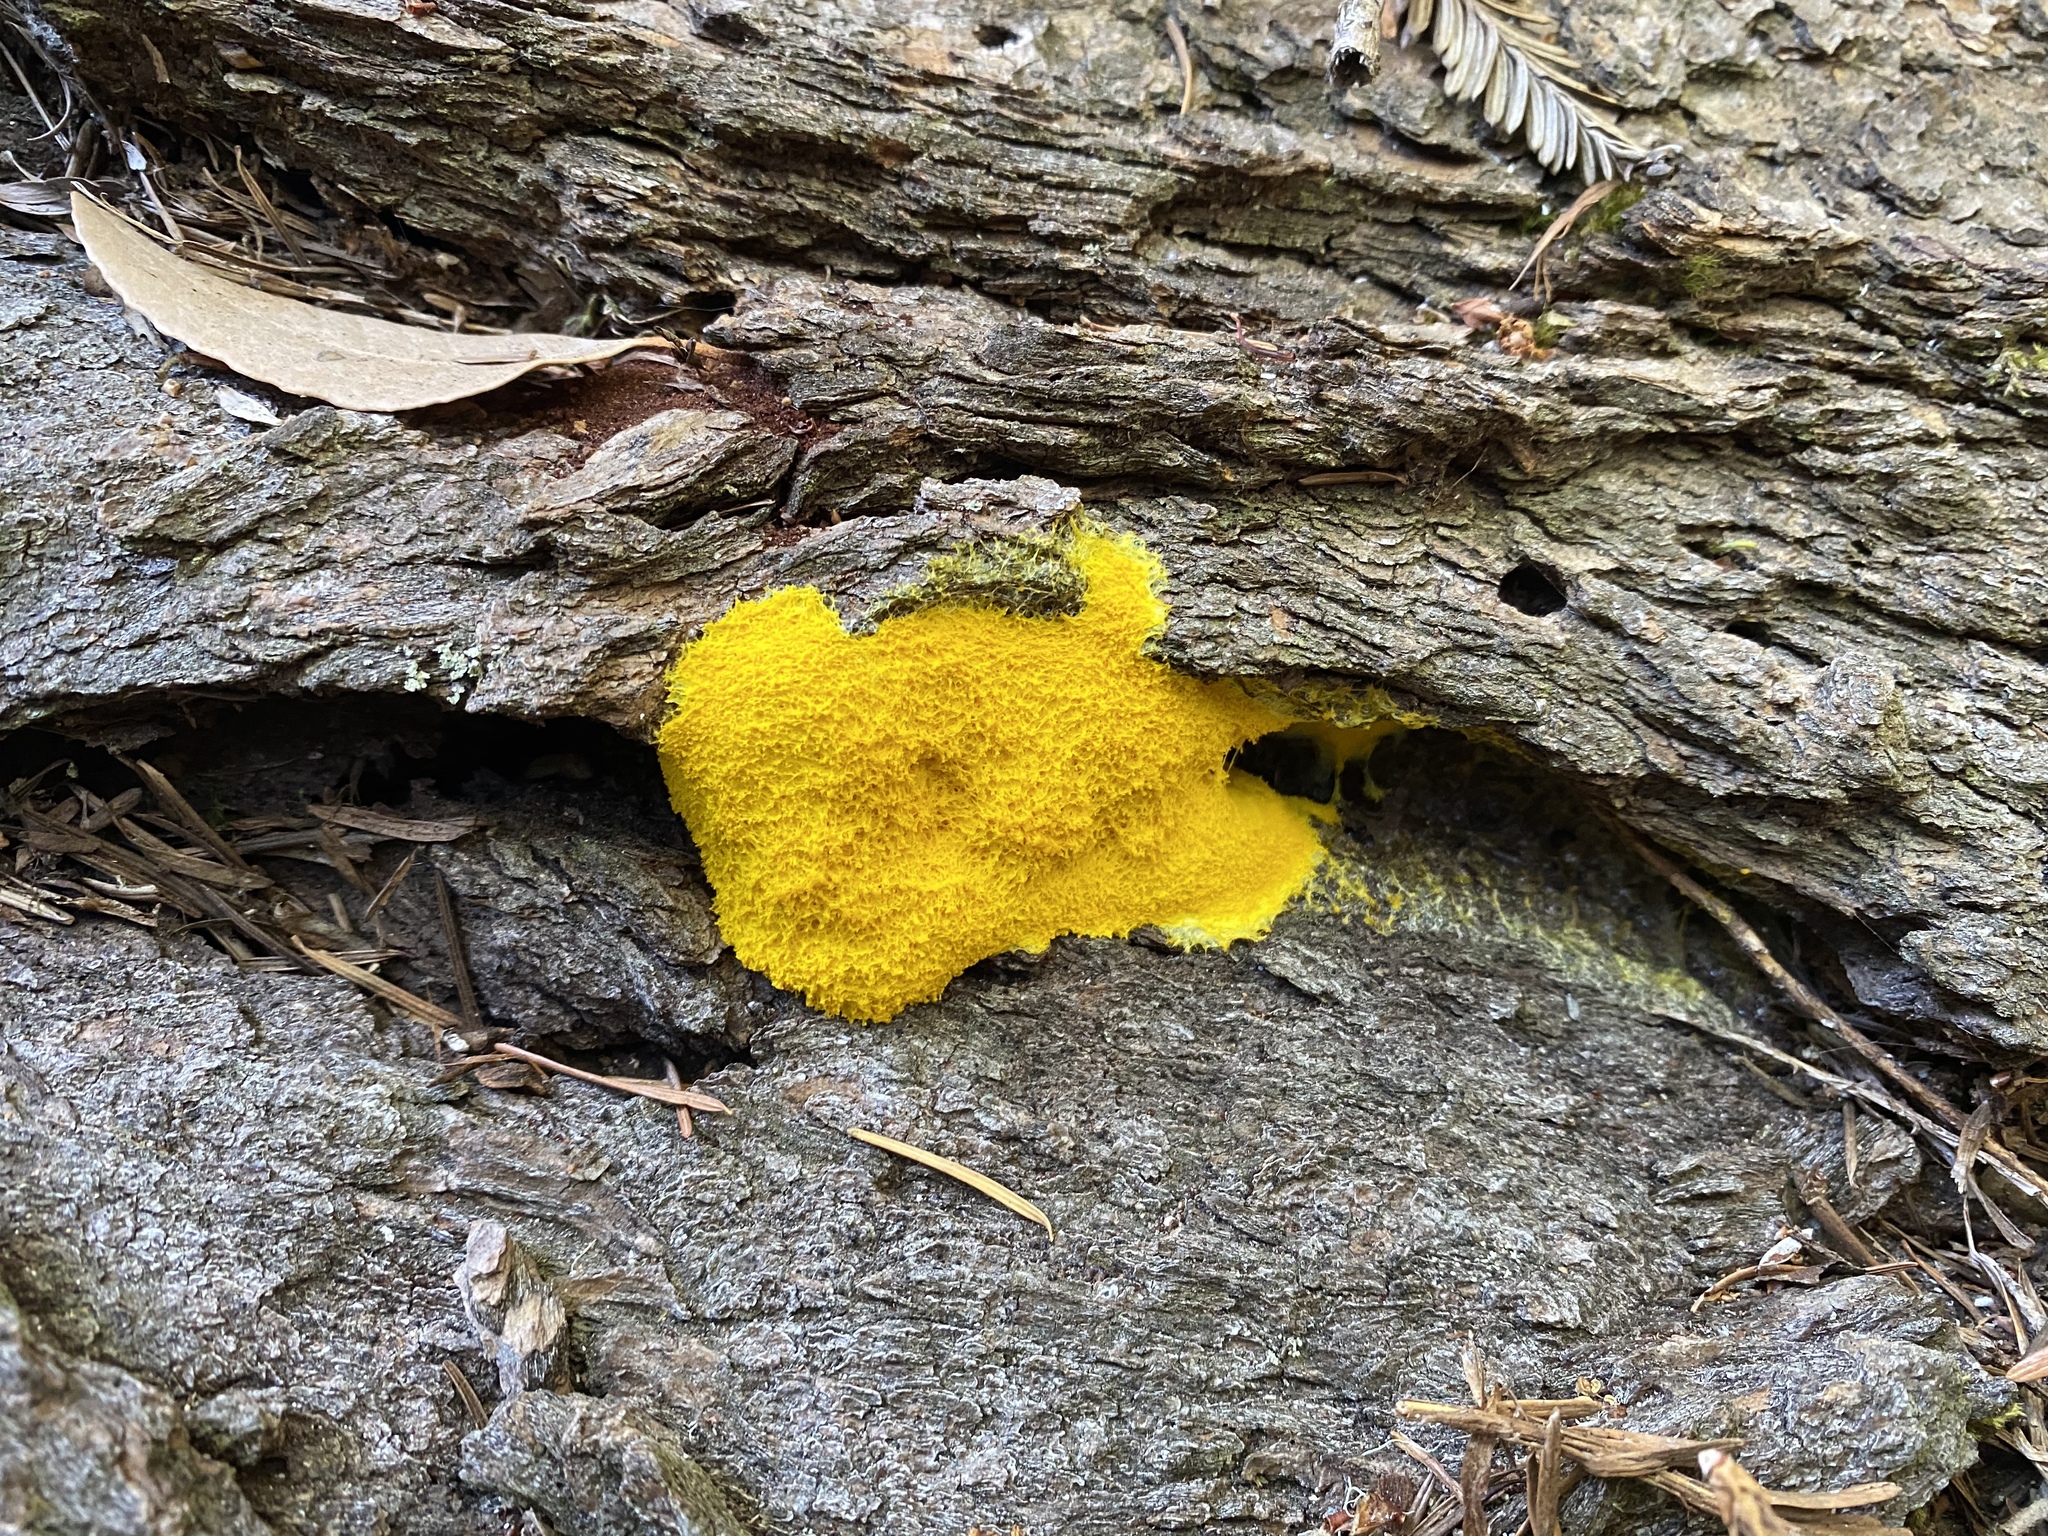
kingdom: Protozoa
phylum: Mycetozoa
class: Myxomycetes
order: Physarales
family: Physaraceae
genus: Fuligo
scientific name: Fuligo septica
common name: Dog vomit slime mold
